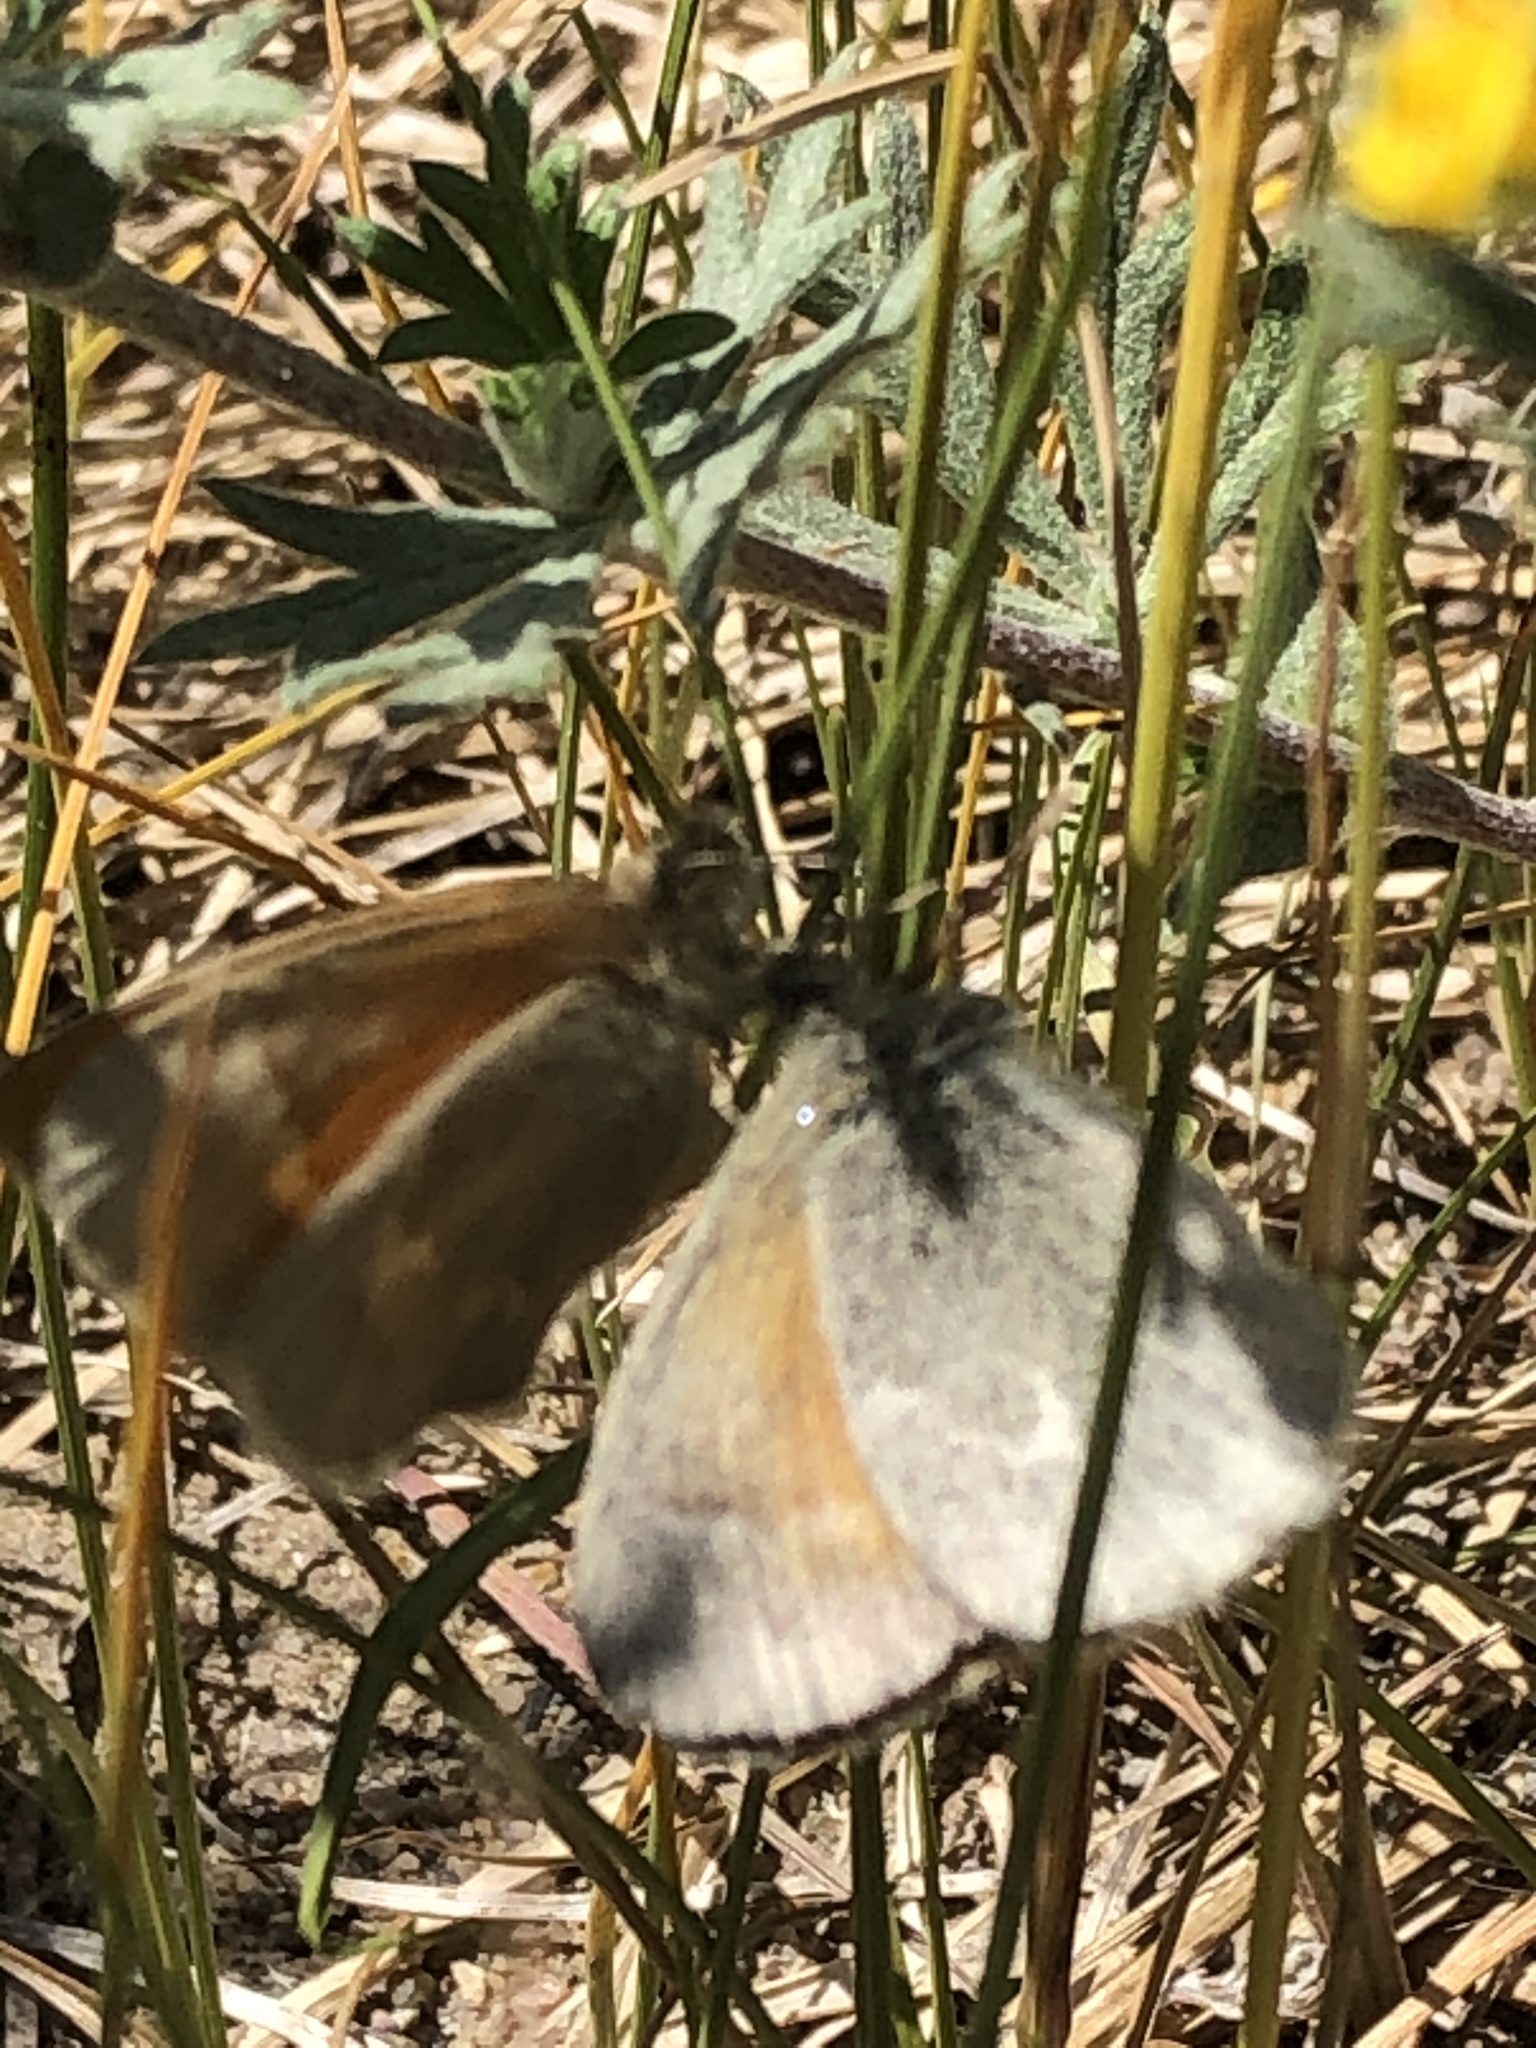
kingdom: Animalia
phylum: Arthropoda
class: Insecta
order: Lepidoptera
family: Nymphalidae
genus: Coenonympha
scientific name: Coenonympha california
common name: Common ringlet
